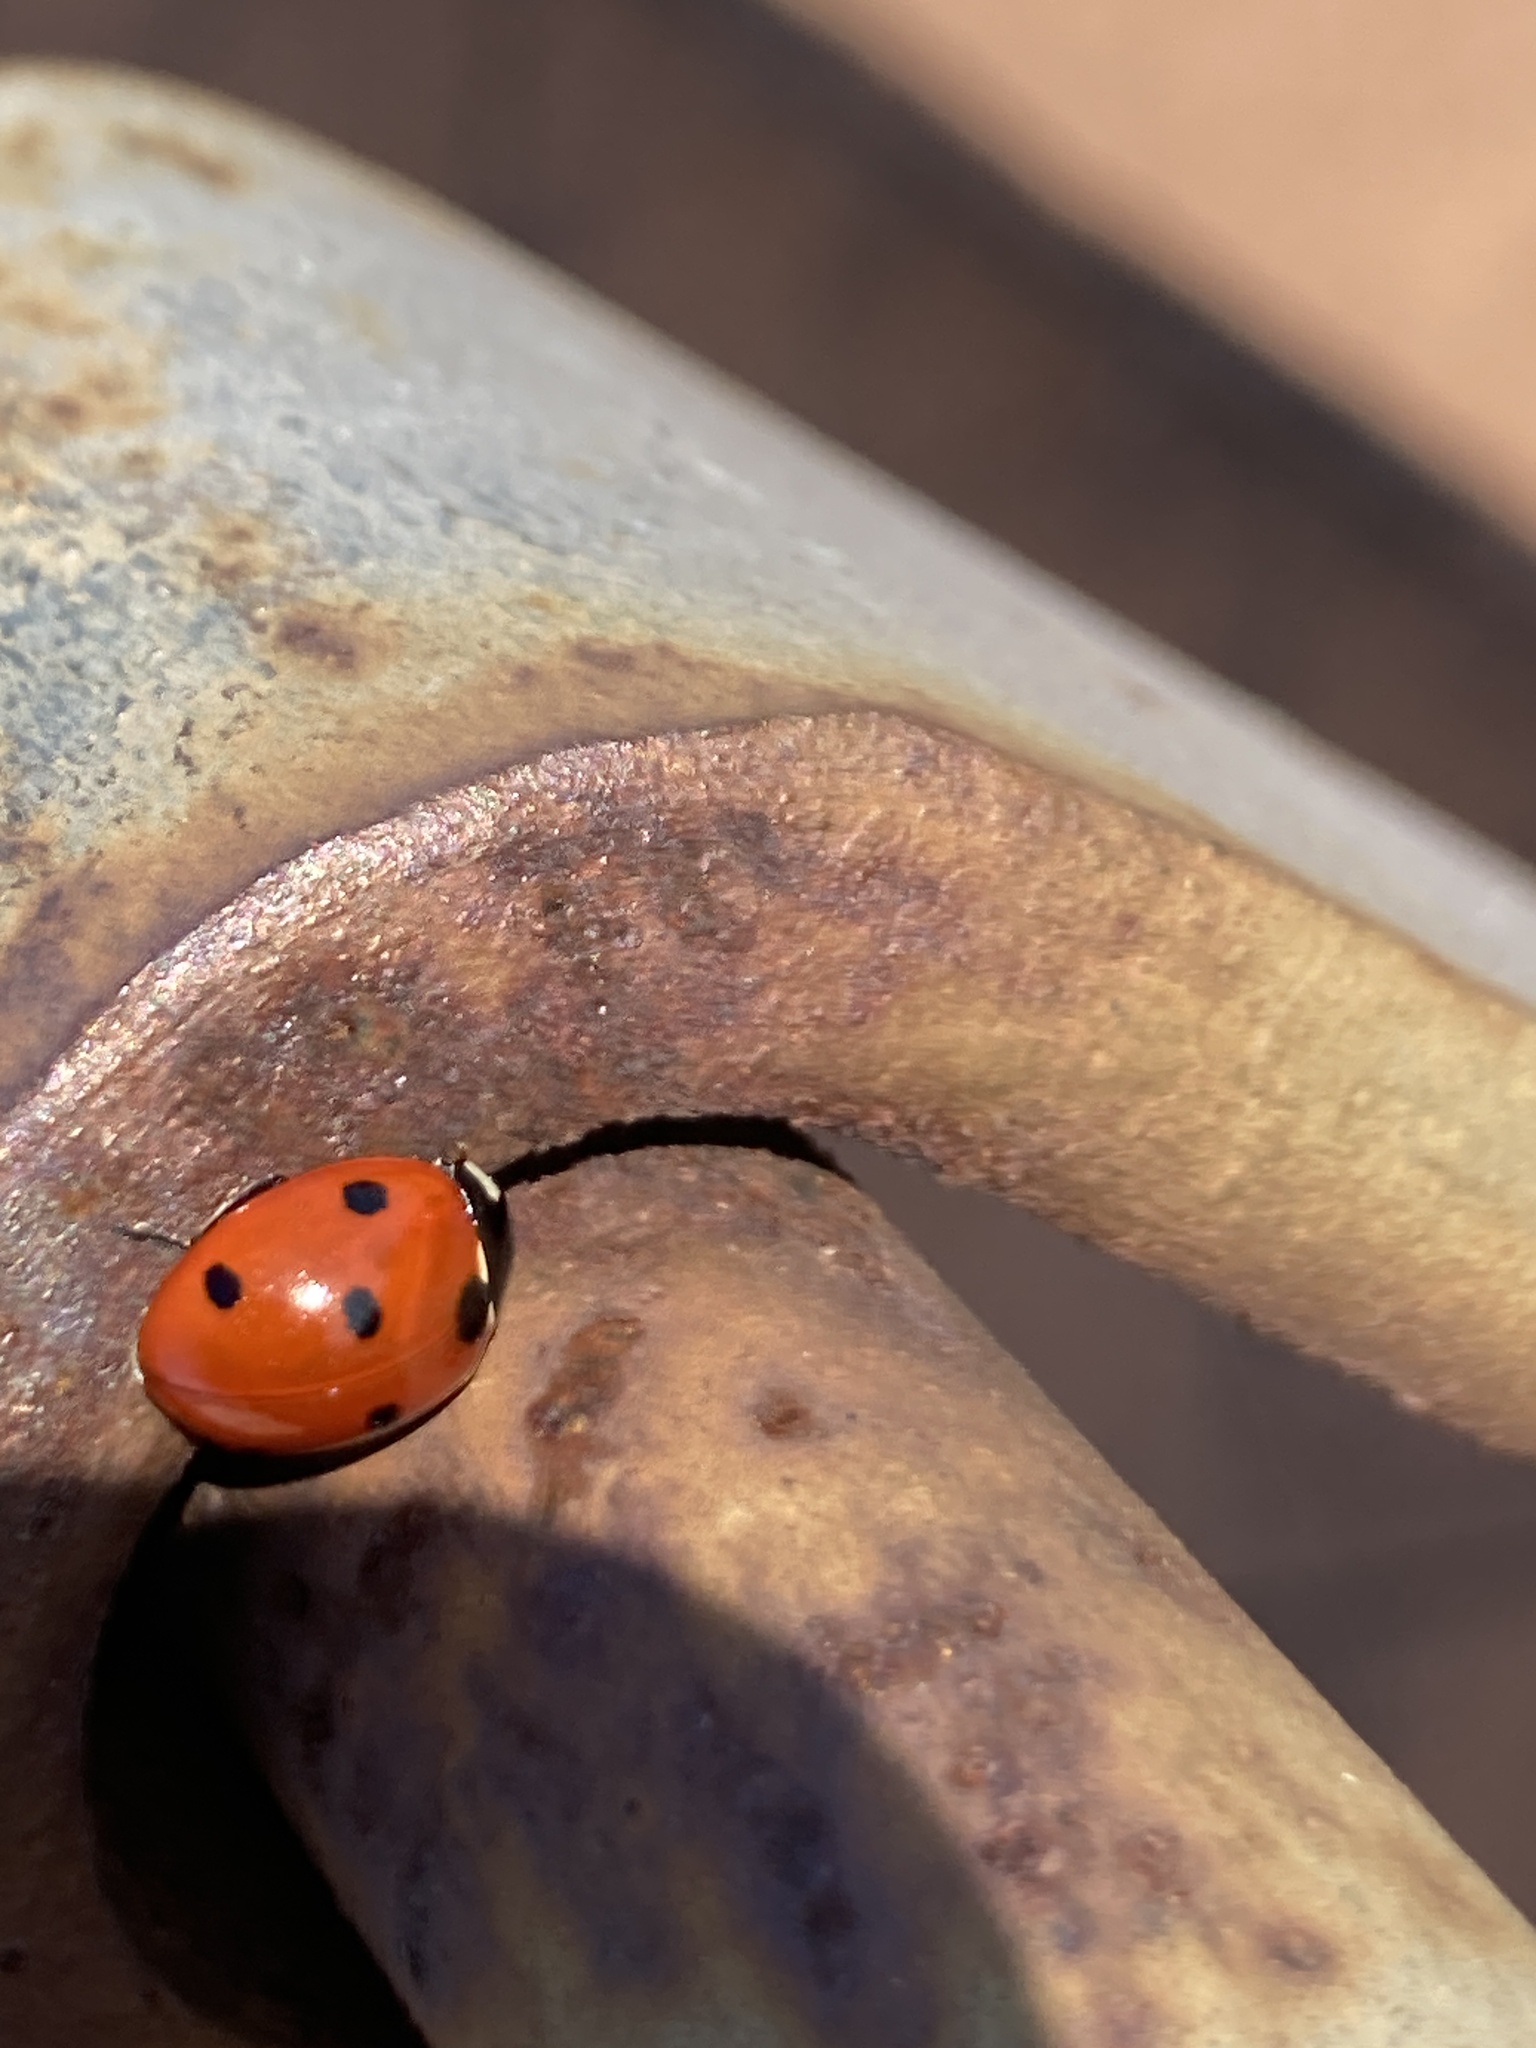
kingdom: Animalia
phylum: Arthropoda
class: Insecta
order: Coleoptera
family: Coccinellidae
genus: Coccinella
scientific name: Coccinella septempunctata
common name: Sevenspotted lady beetle
